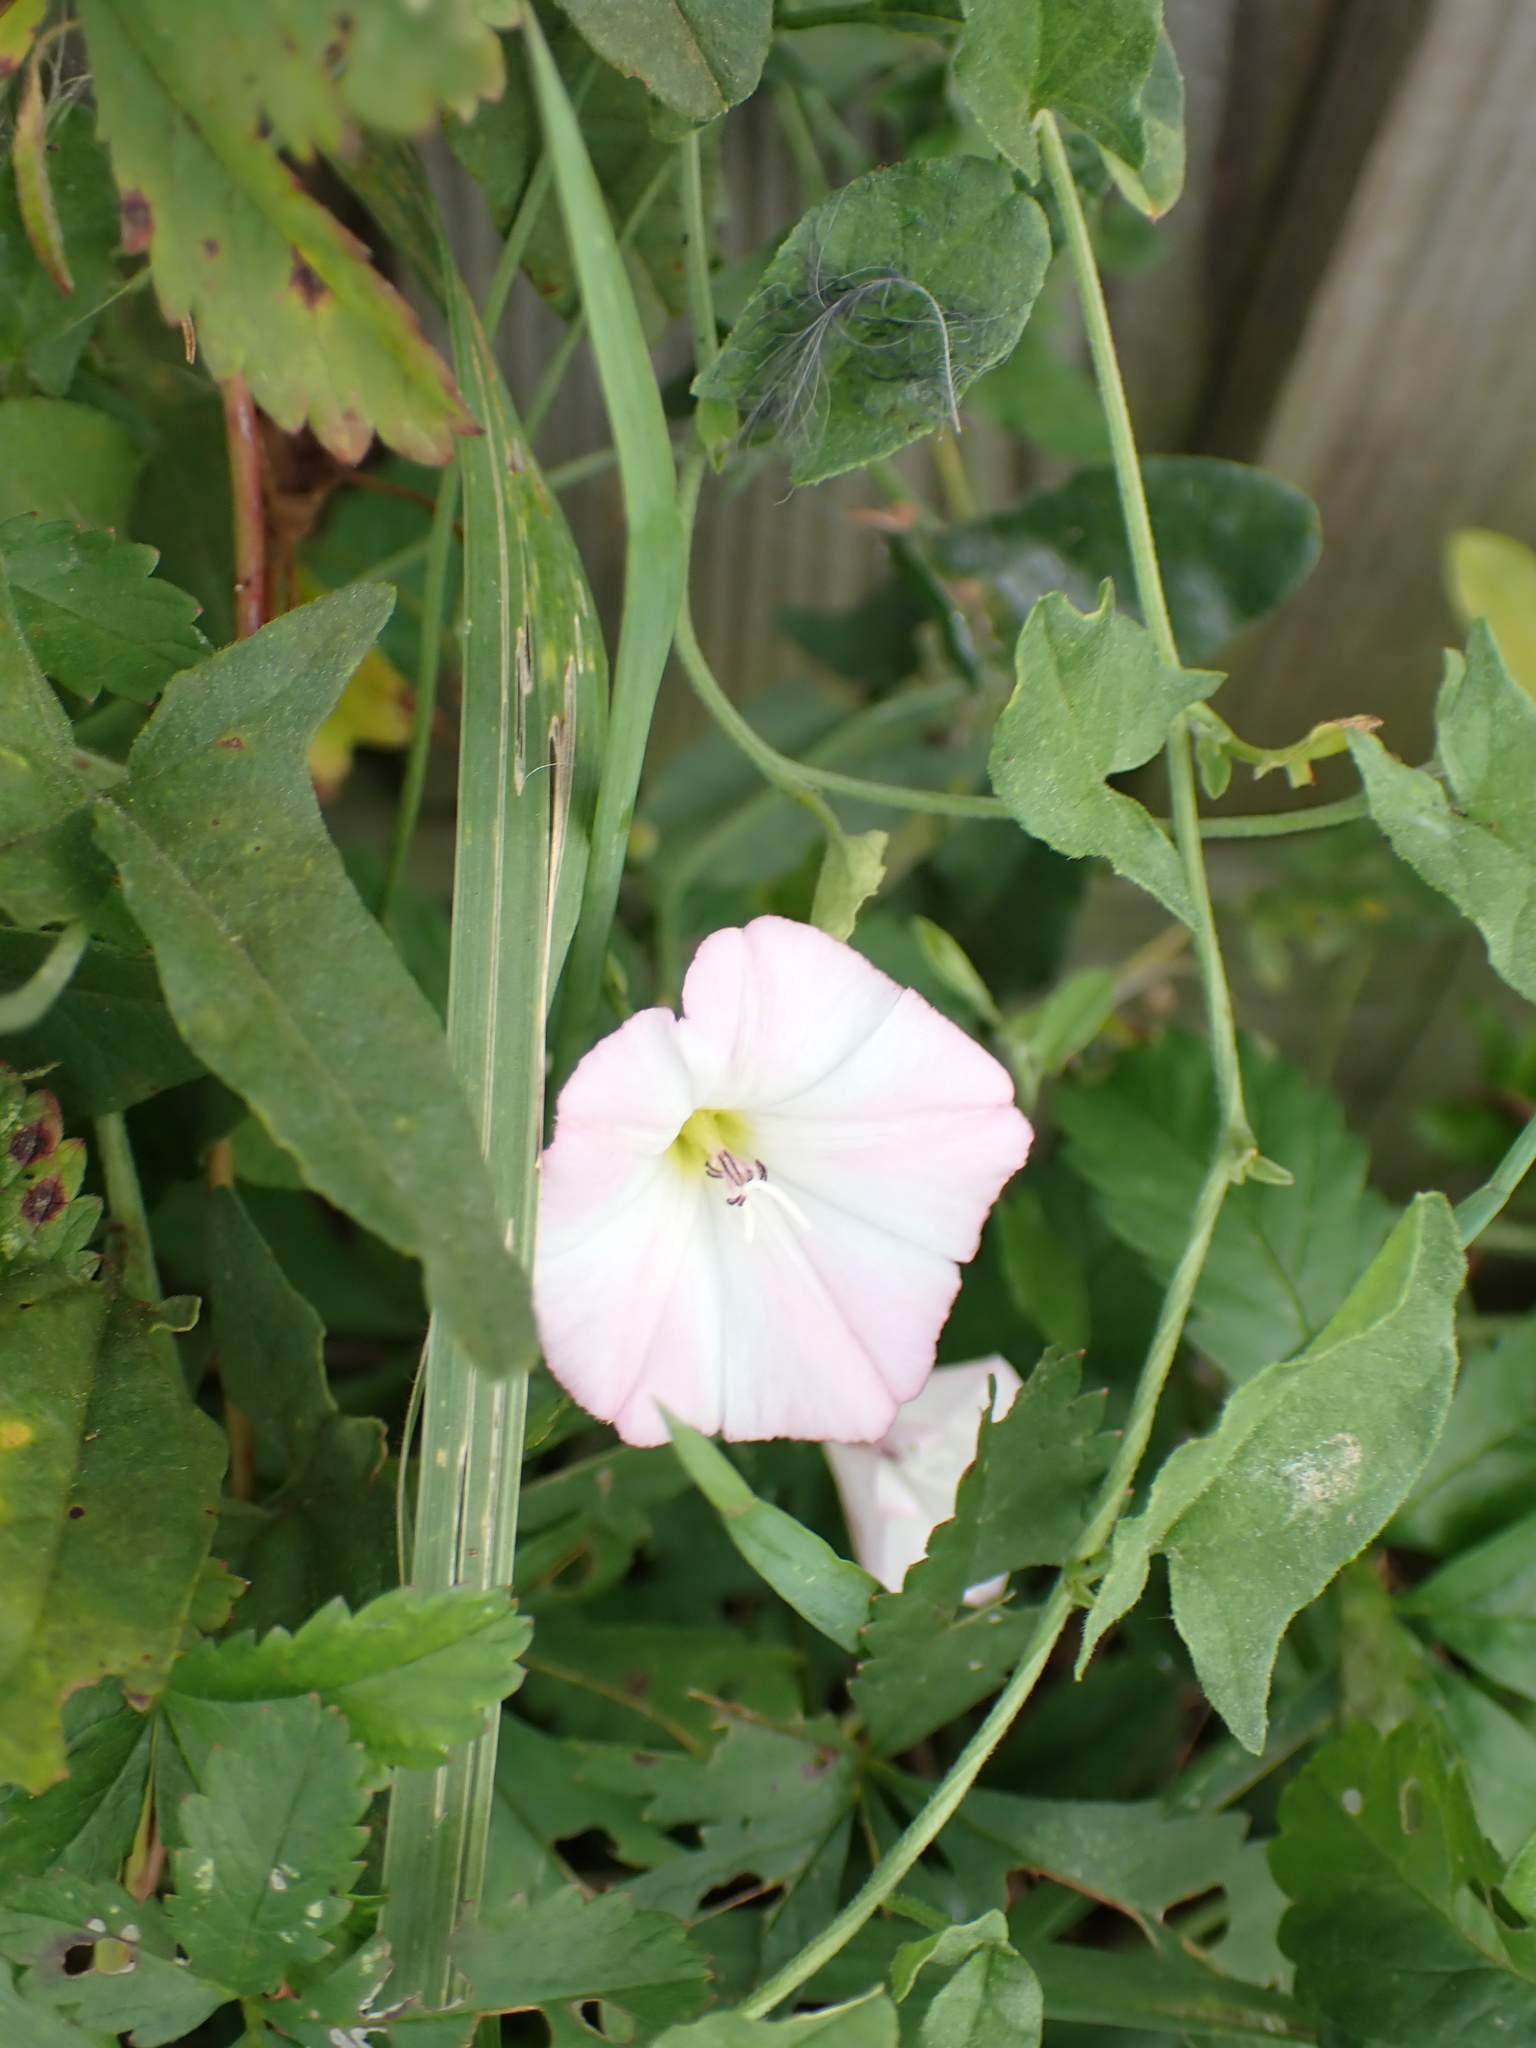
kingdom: Plantae
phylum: Tracheophyta
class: Magnoliopsida
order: Solanales
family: Convolvulaceae
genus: Convolvulus
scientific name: Convolvulus arvensis
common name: Field bindweed
